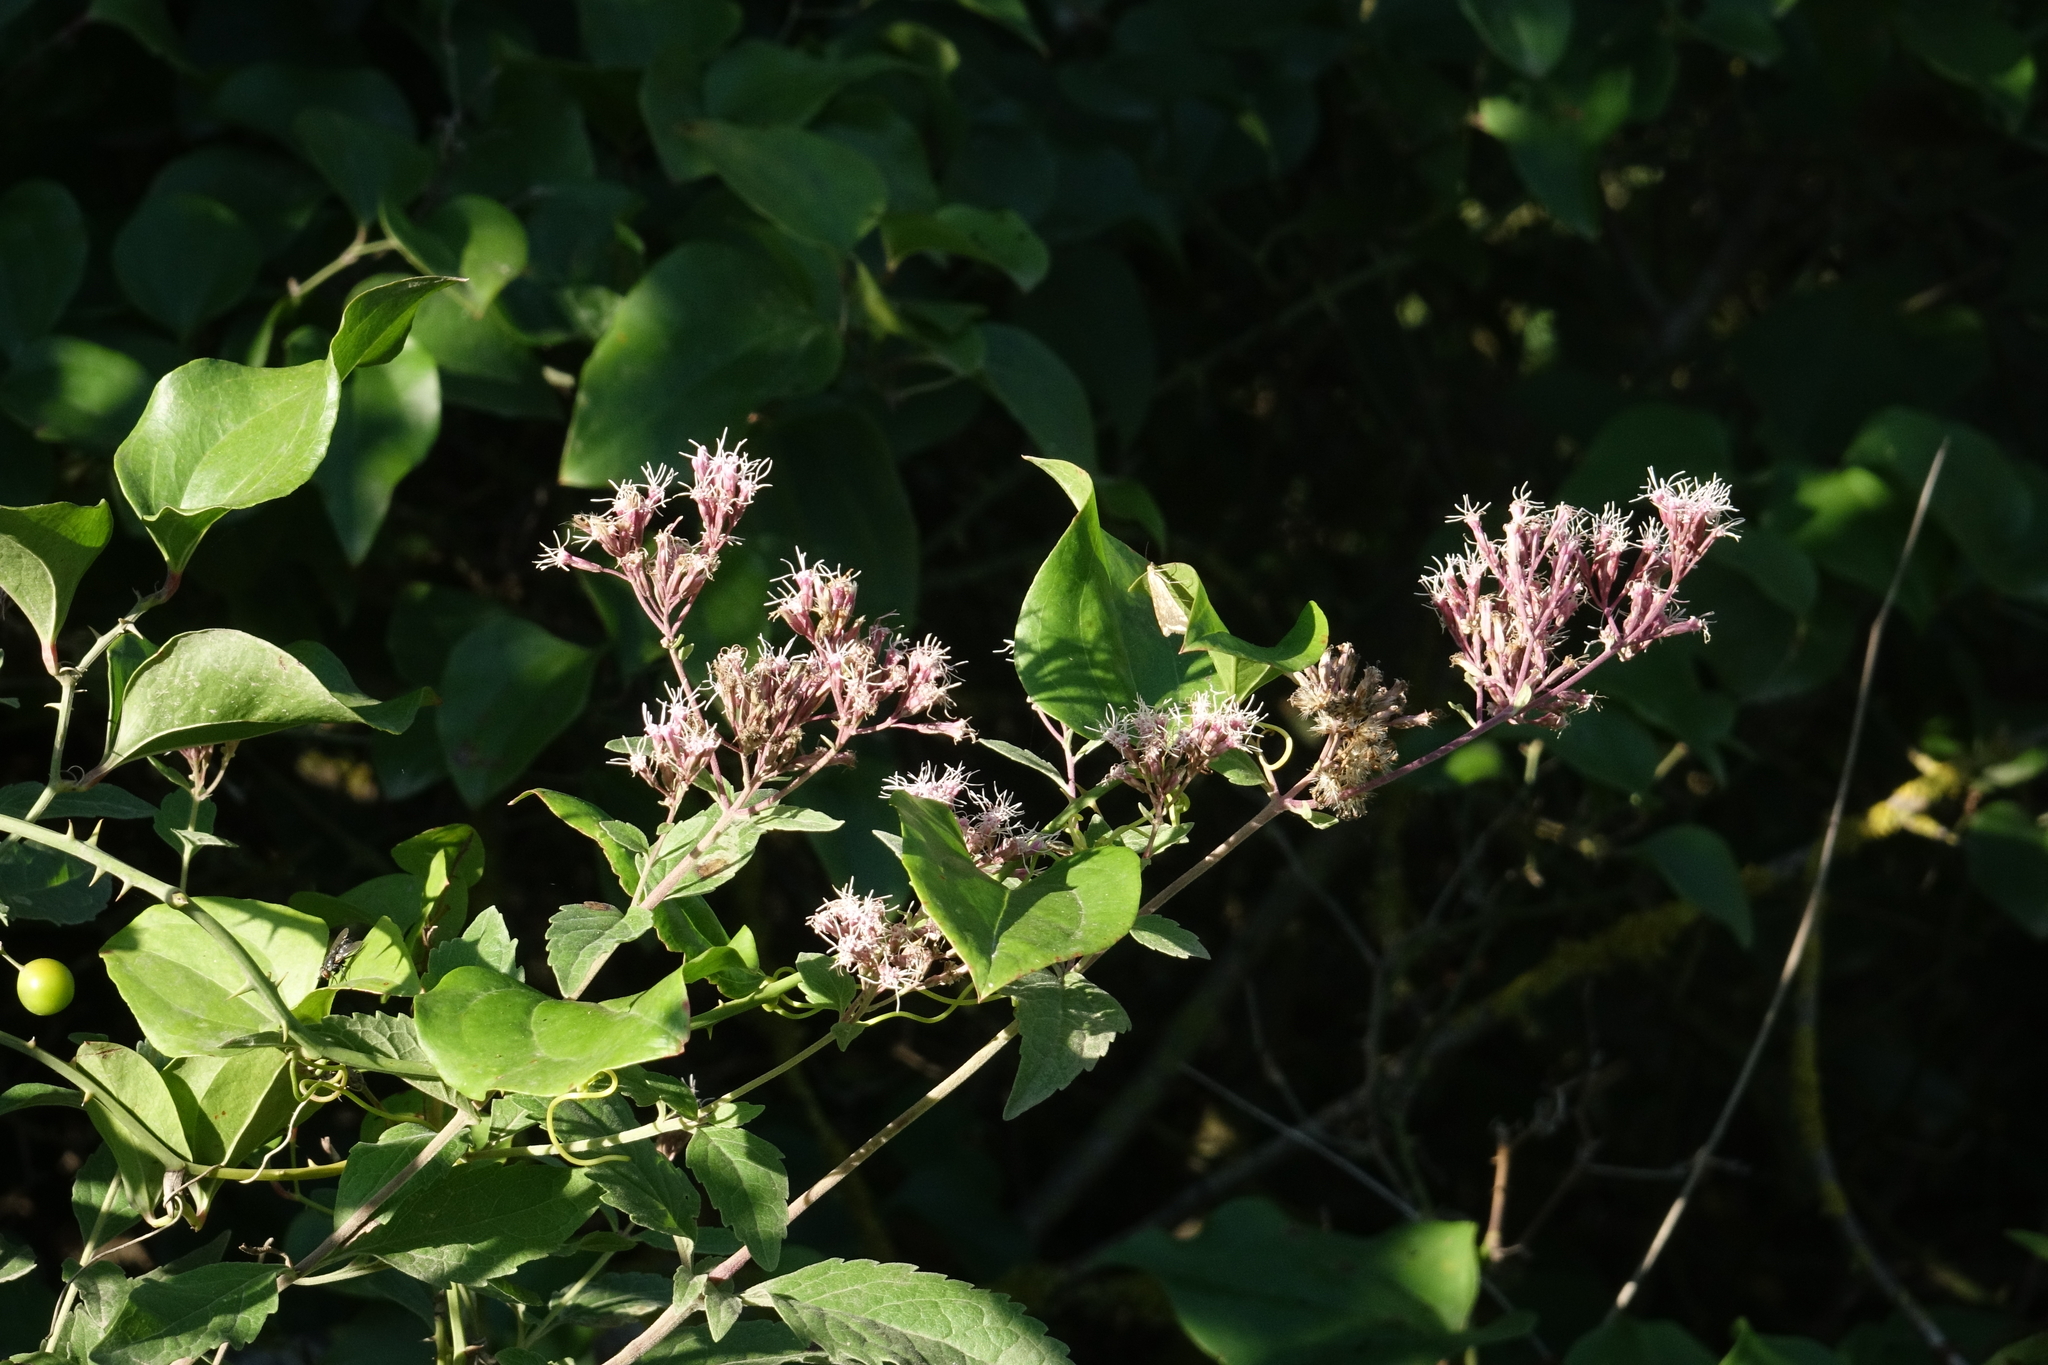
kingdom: Plantae
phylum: Tracheophyta
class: Magnoliopsida
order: Asterales
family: Asteraceae
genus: Eupatorium
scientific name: Eupatorium cannabinum
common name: Hemp-agrimony
